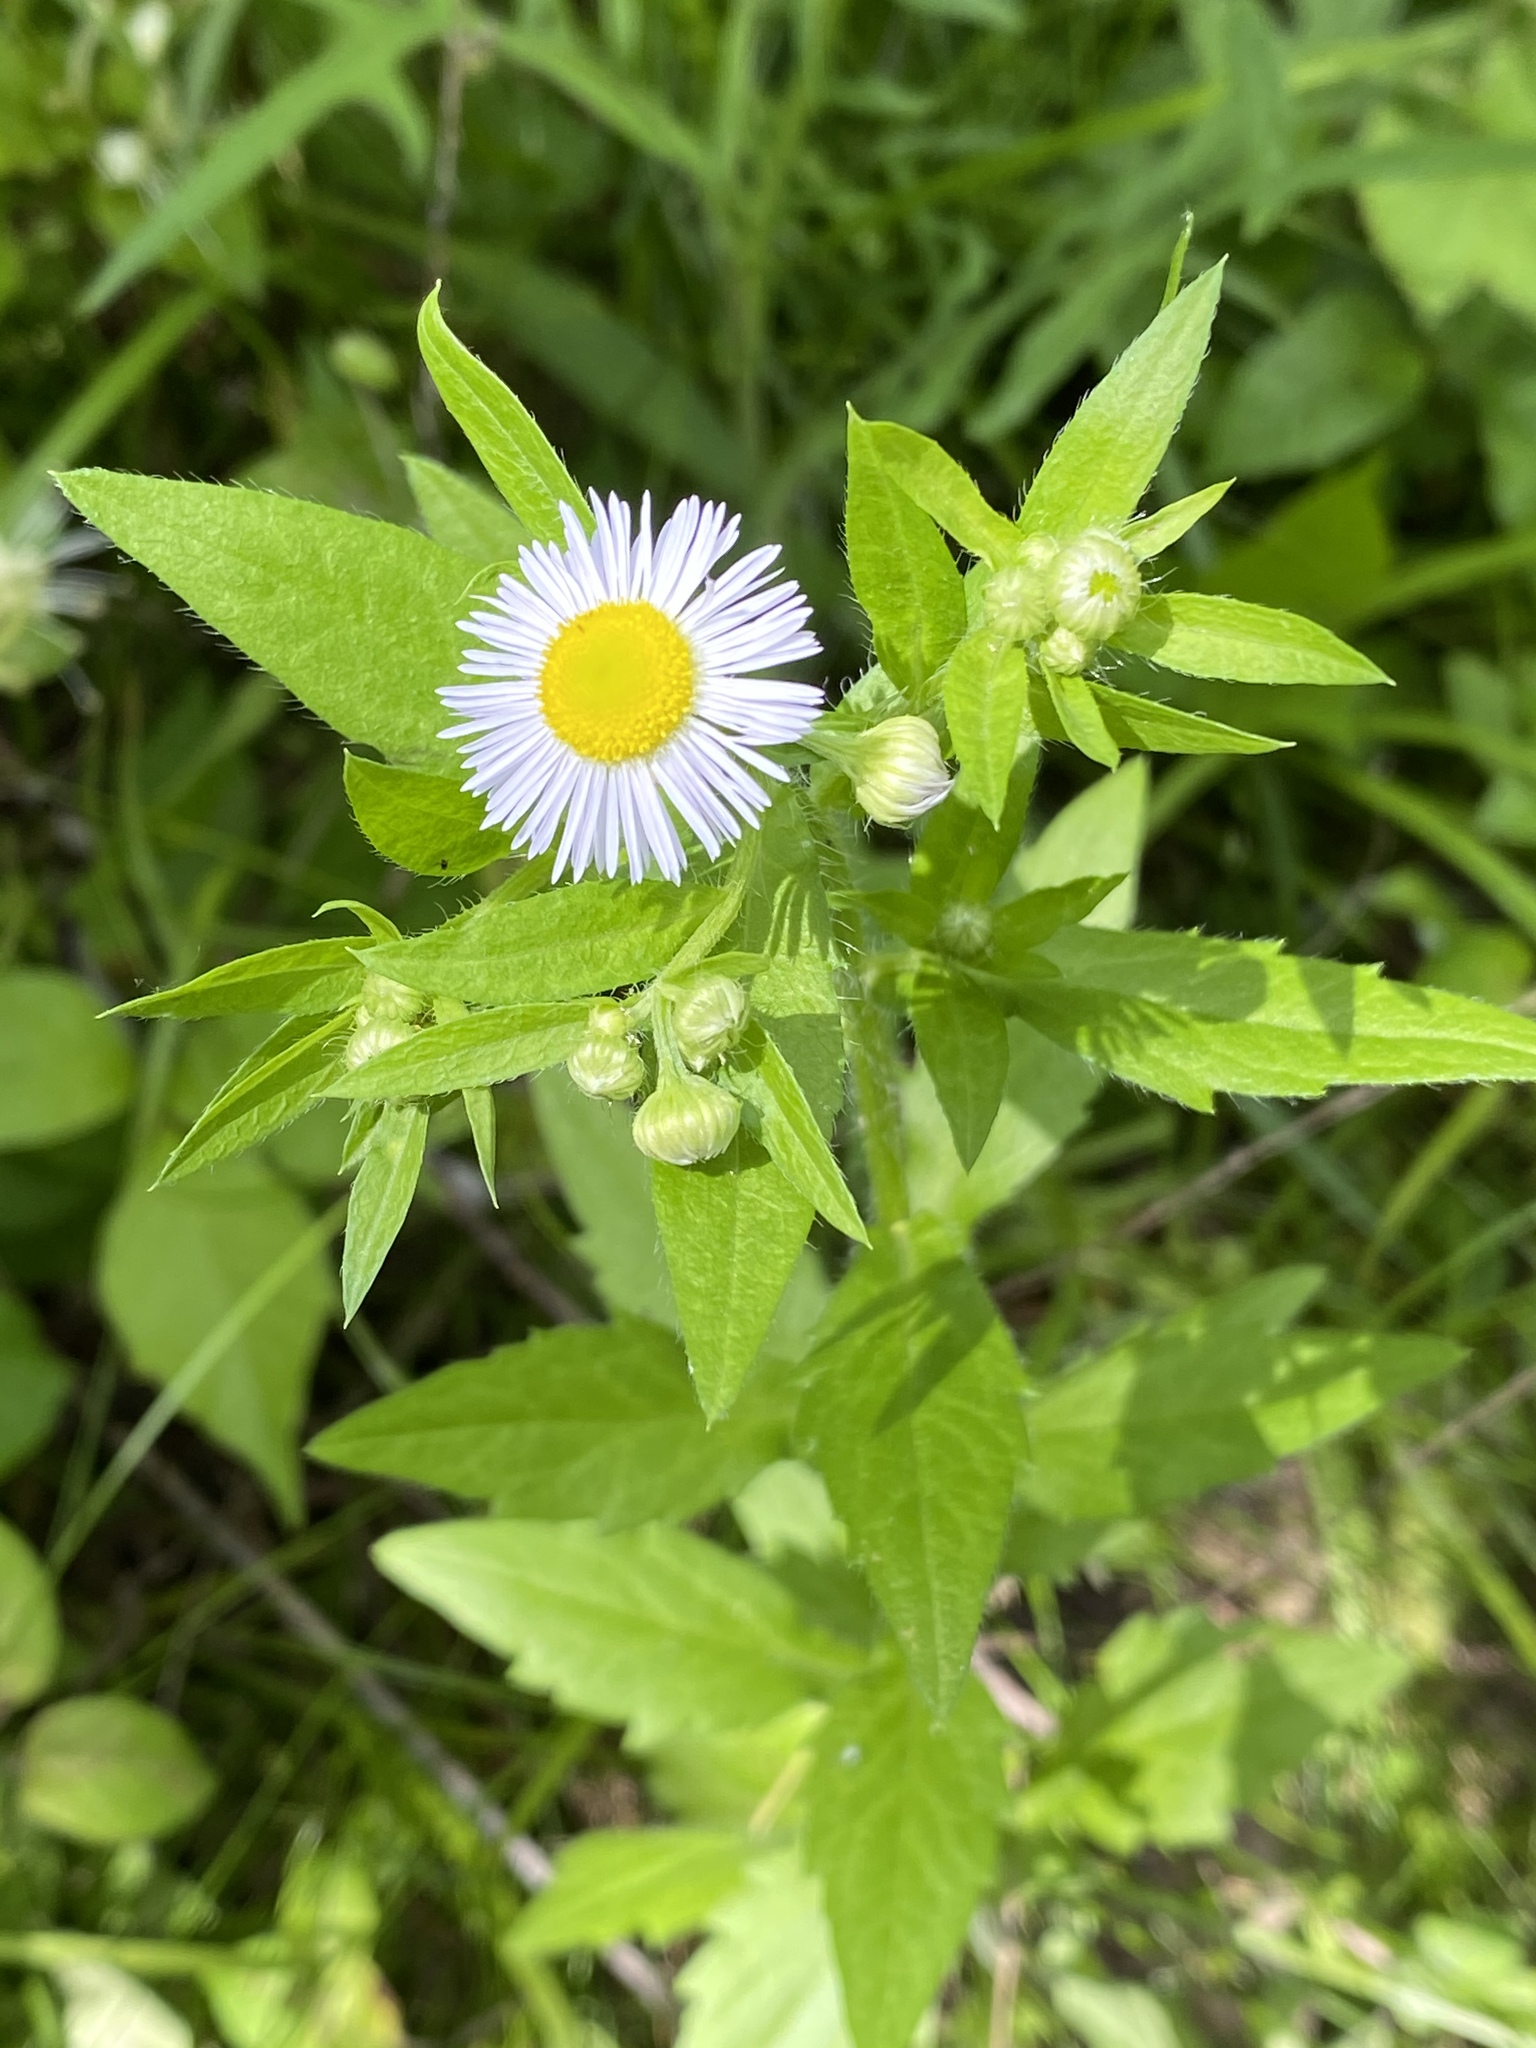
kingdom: Plantae
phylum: Tracheophyta
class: Magnoliopsida
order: Asterales
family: Asteraceae
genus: Erigeron
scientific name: Erigeron annuus
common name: Tall fleabane
